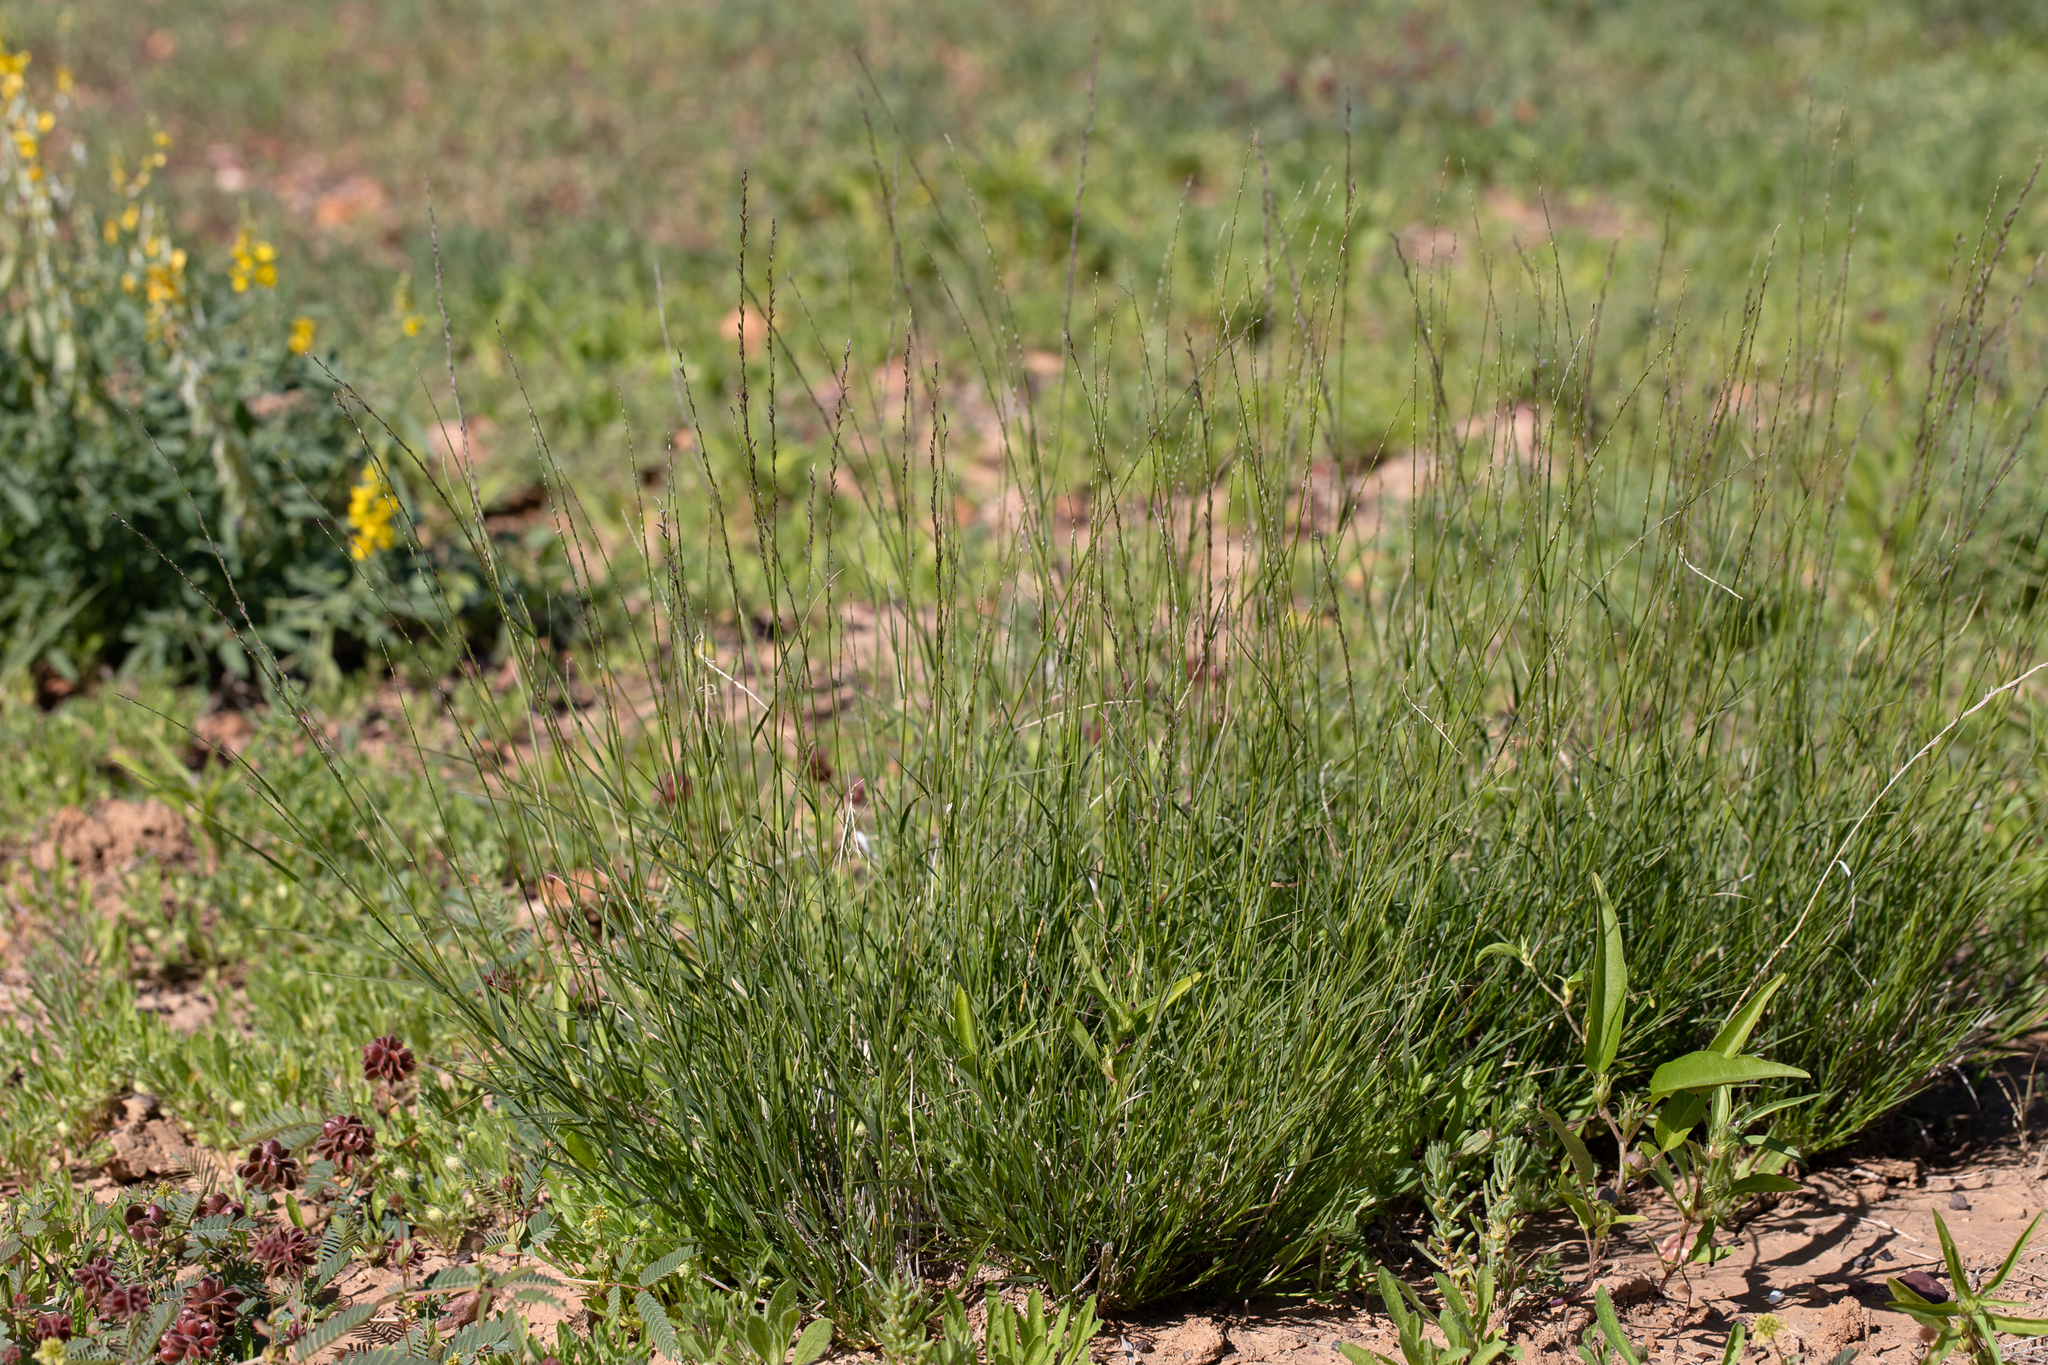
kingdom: Plantae
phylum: Tracheophyta
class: Liliopsida
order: Poales
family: Poaceae
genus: Eragrostis
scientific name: Eragrostis xerophila
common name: Wire wandarrie grass
